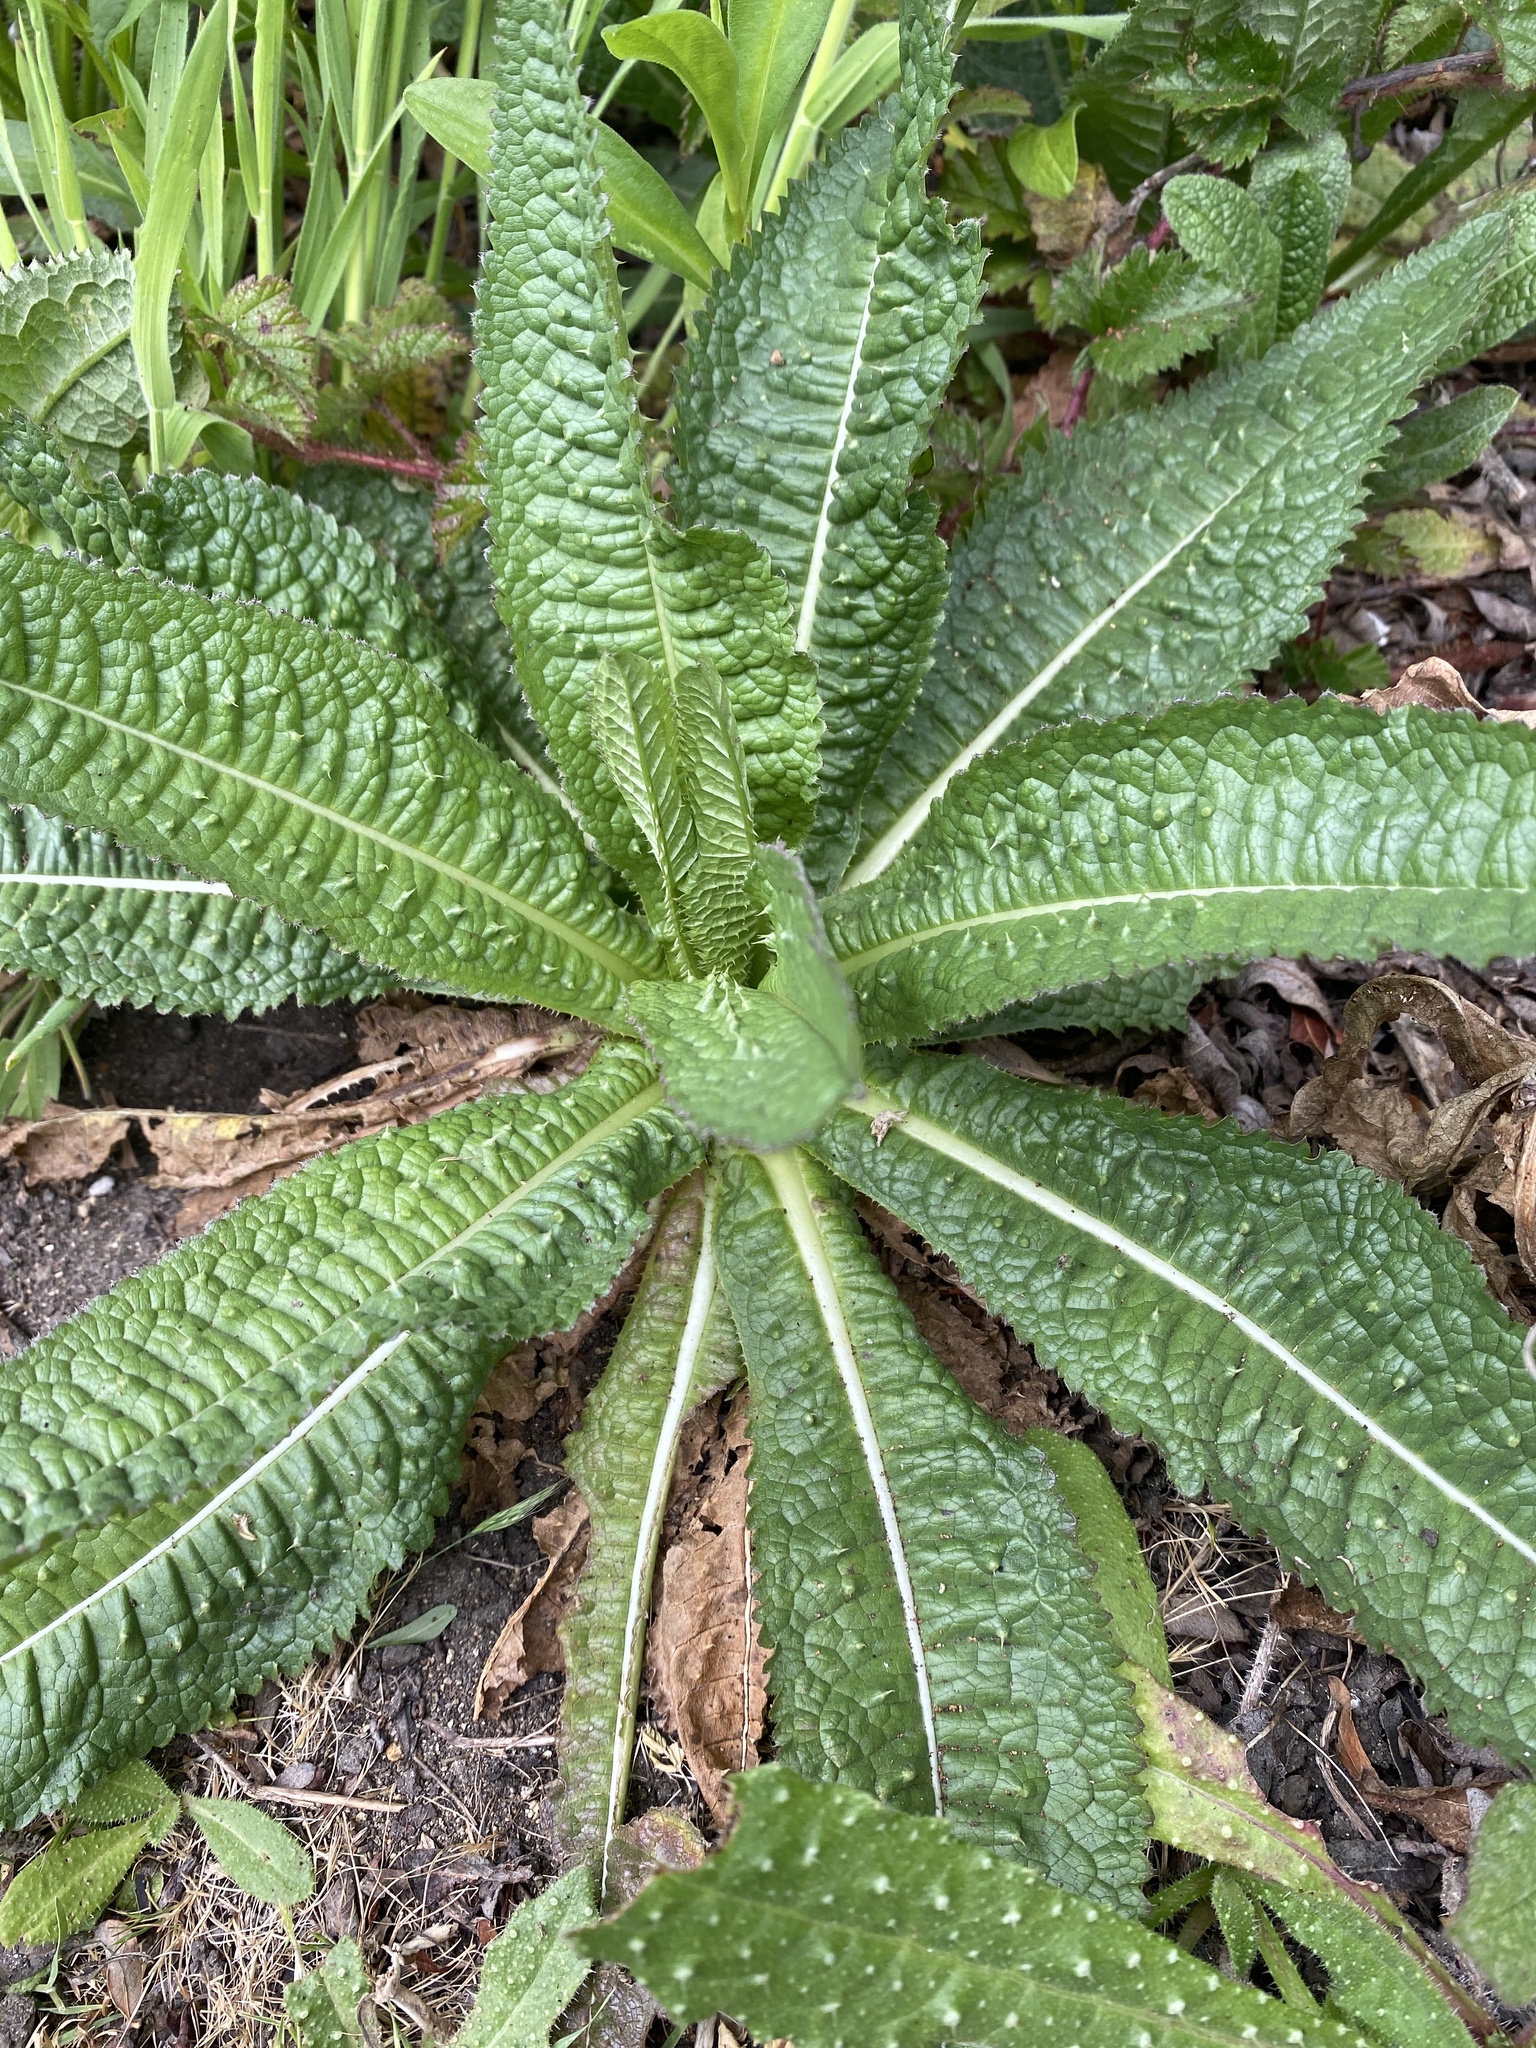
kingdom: Plantae
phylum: Tracheophyta
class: Magnoliopsida
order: Dipsacales
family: Caprifoliaceae
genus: Dipsacus
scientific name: Dipsacus fullonum
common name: Teasel
